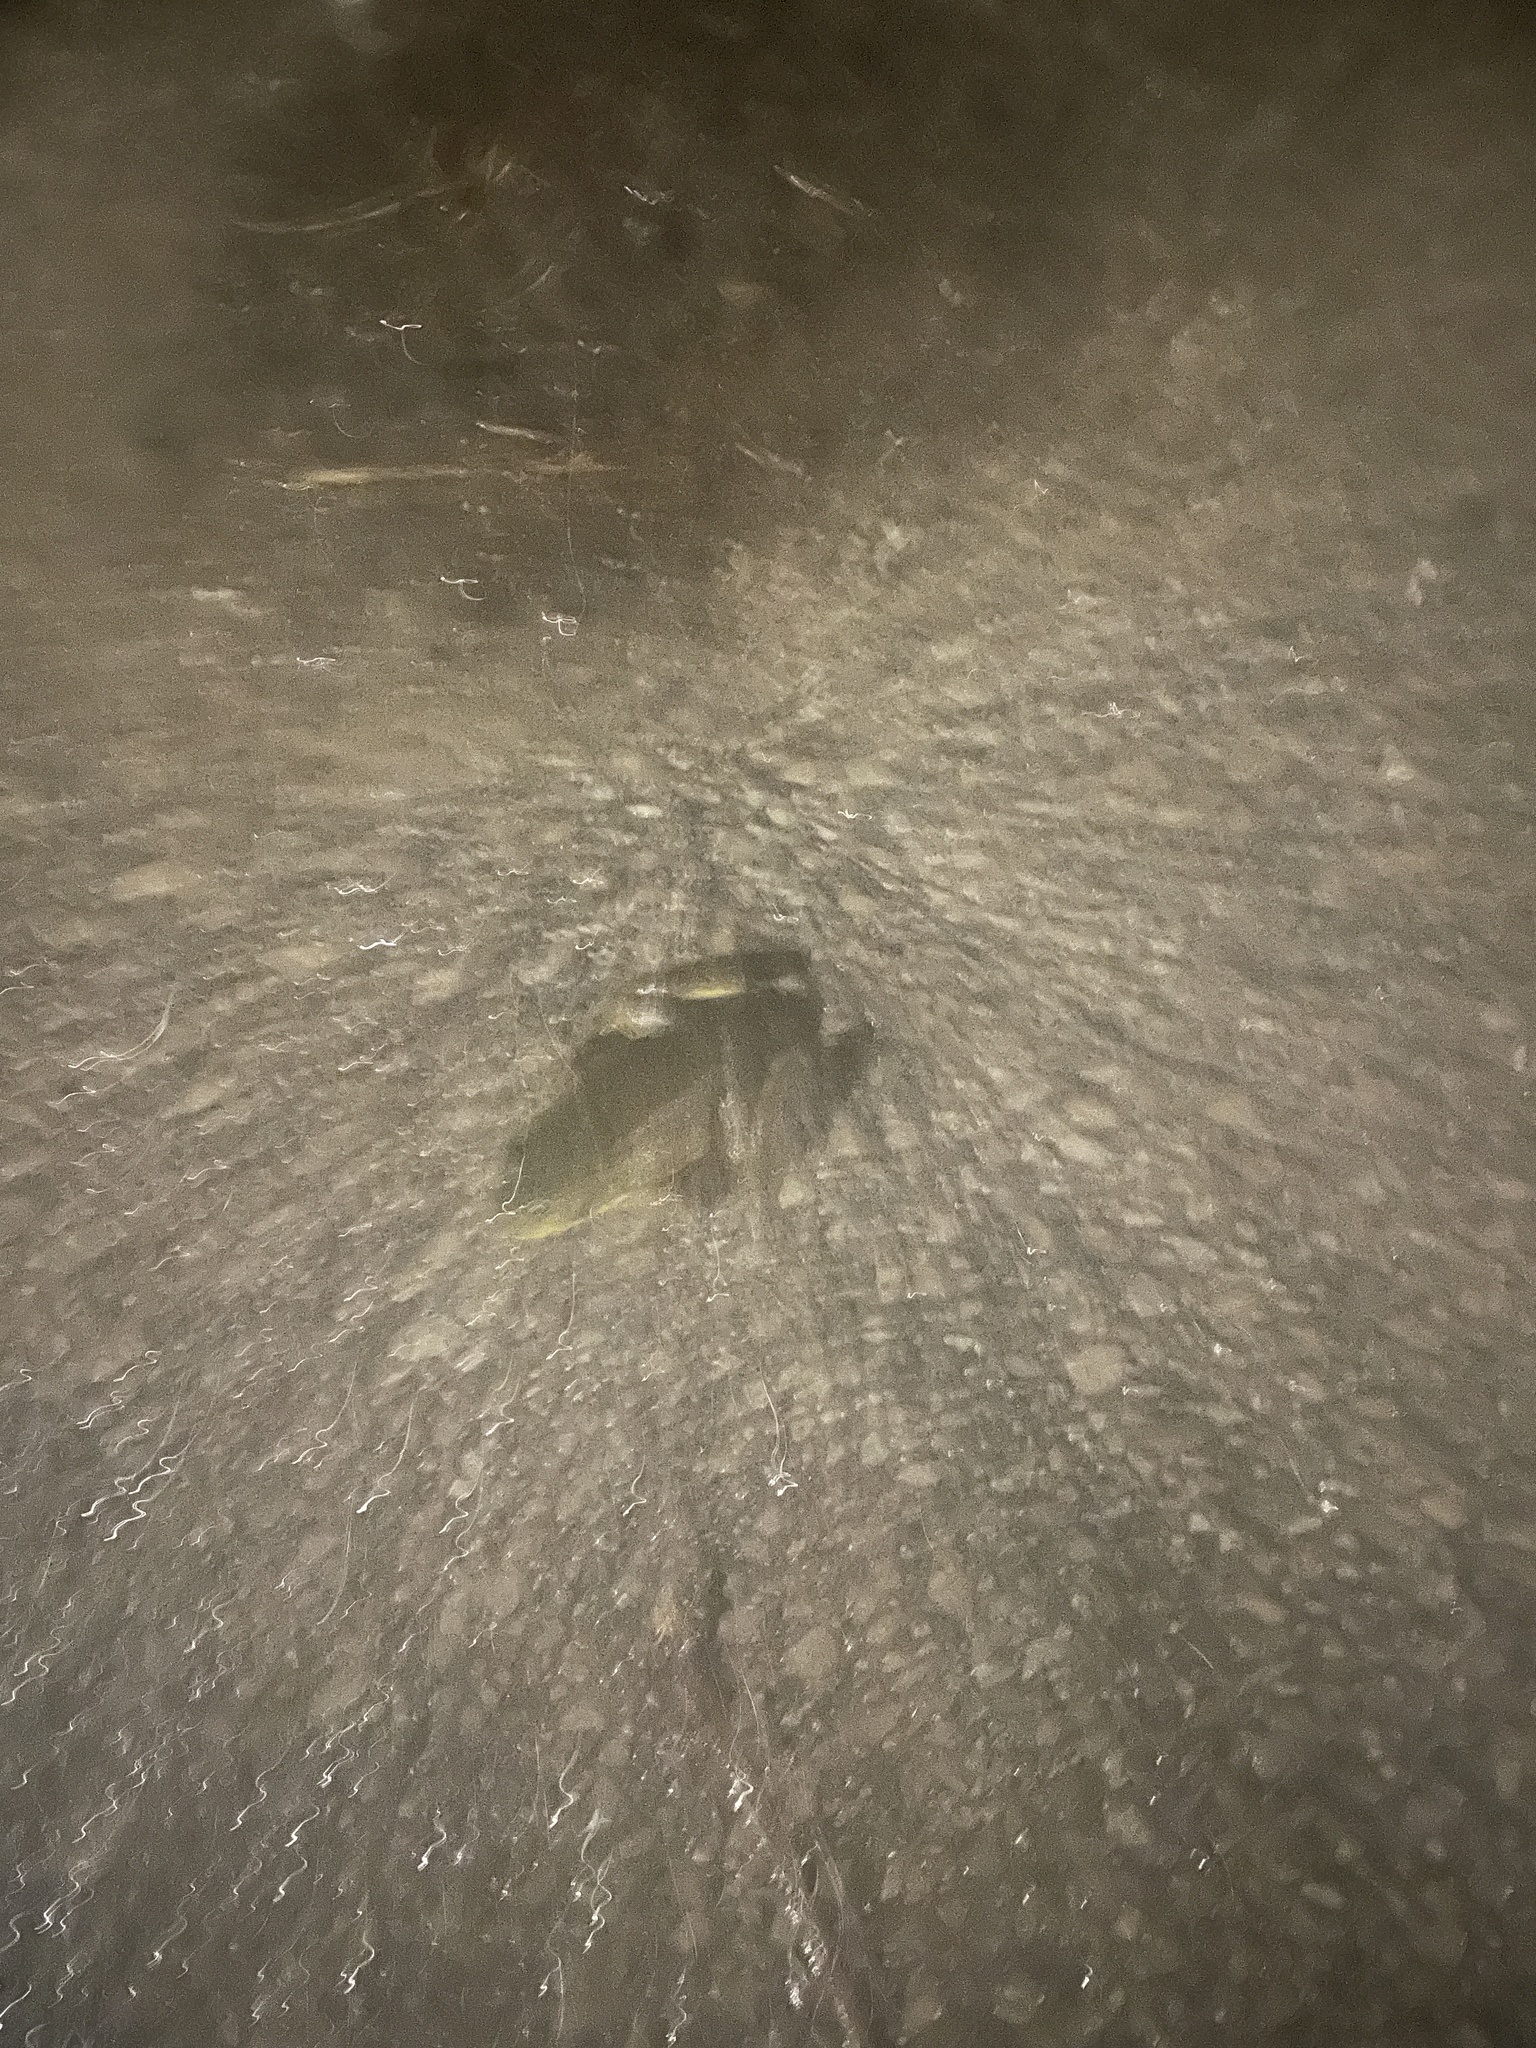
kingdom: Animalia
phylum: Chordata
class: Amphibia
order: Anura
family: Ranidae
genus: Lithobates
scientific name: Lithobates clamitans
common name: Green frog
